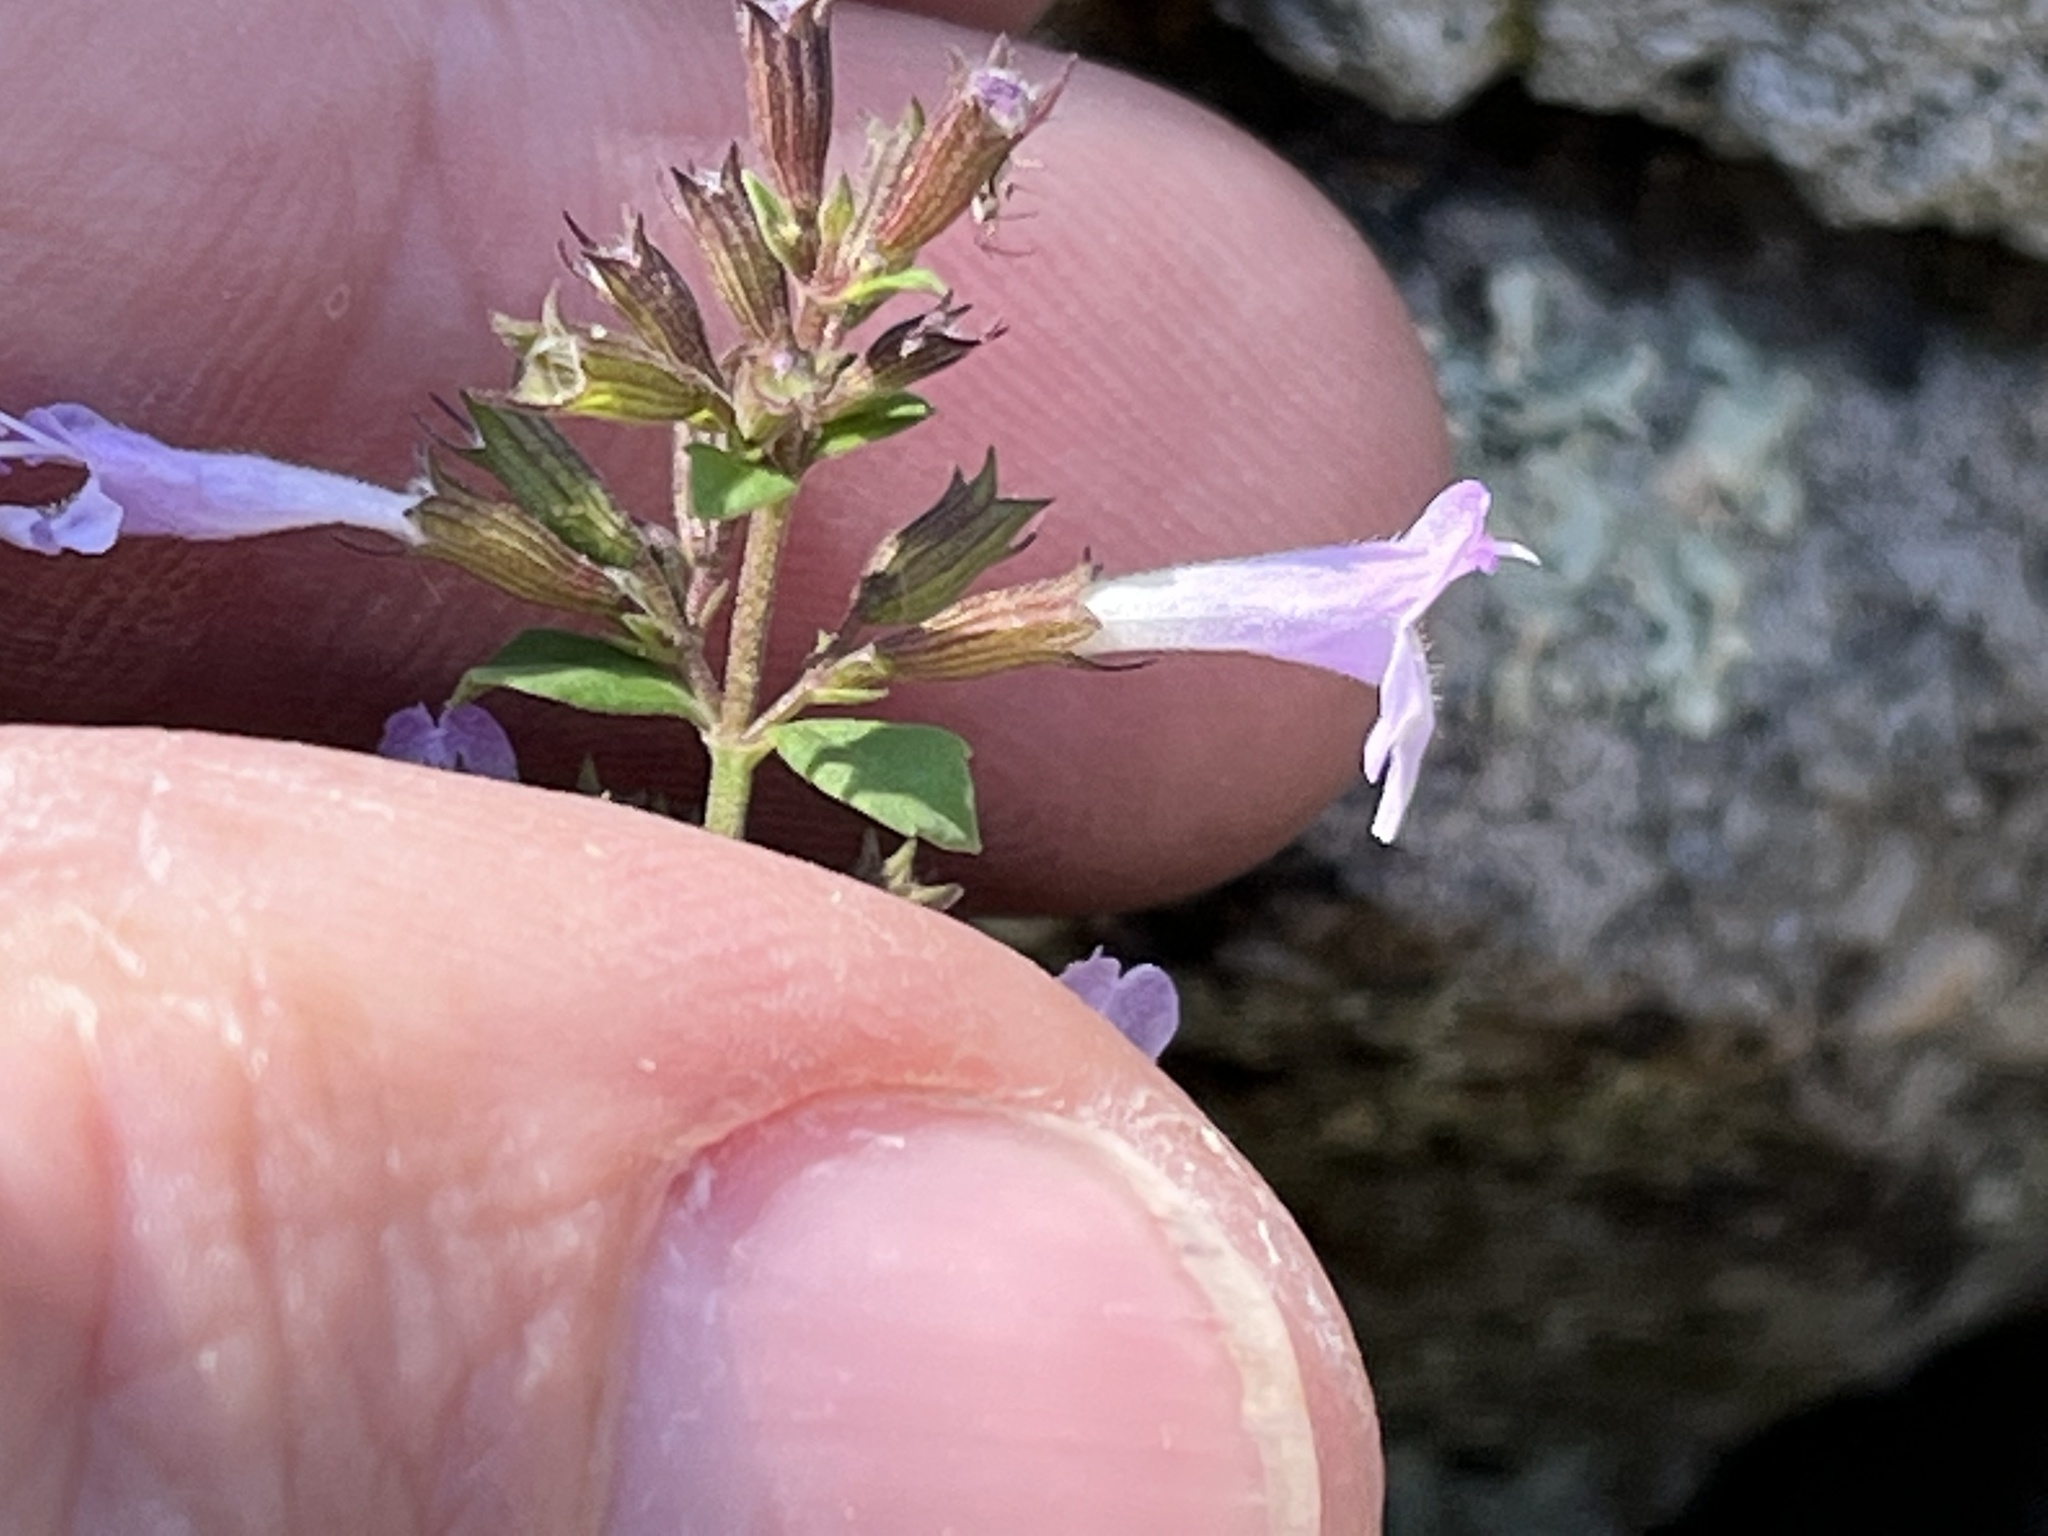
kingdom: Plantae
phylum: Tracheophyta
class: Magnoliopsida
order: Lamiales
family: Lamiaceae
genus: Clinopodium
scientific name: Clinopodium menthifolium
